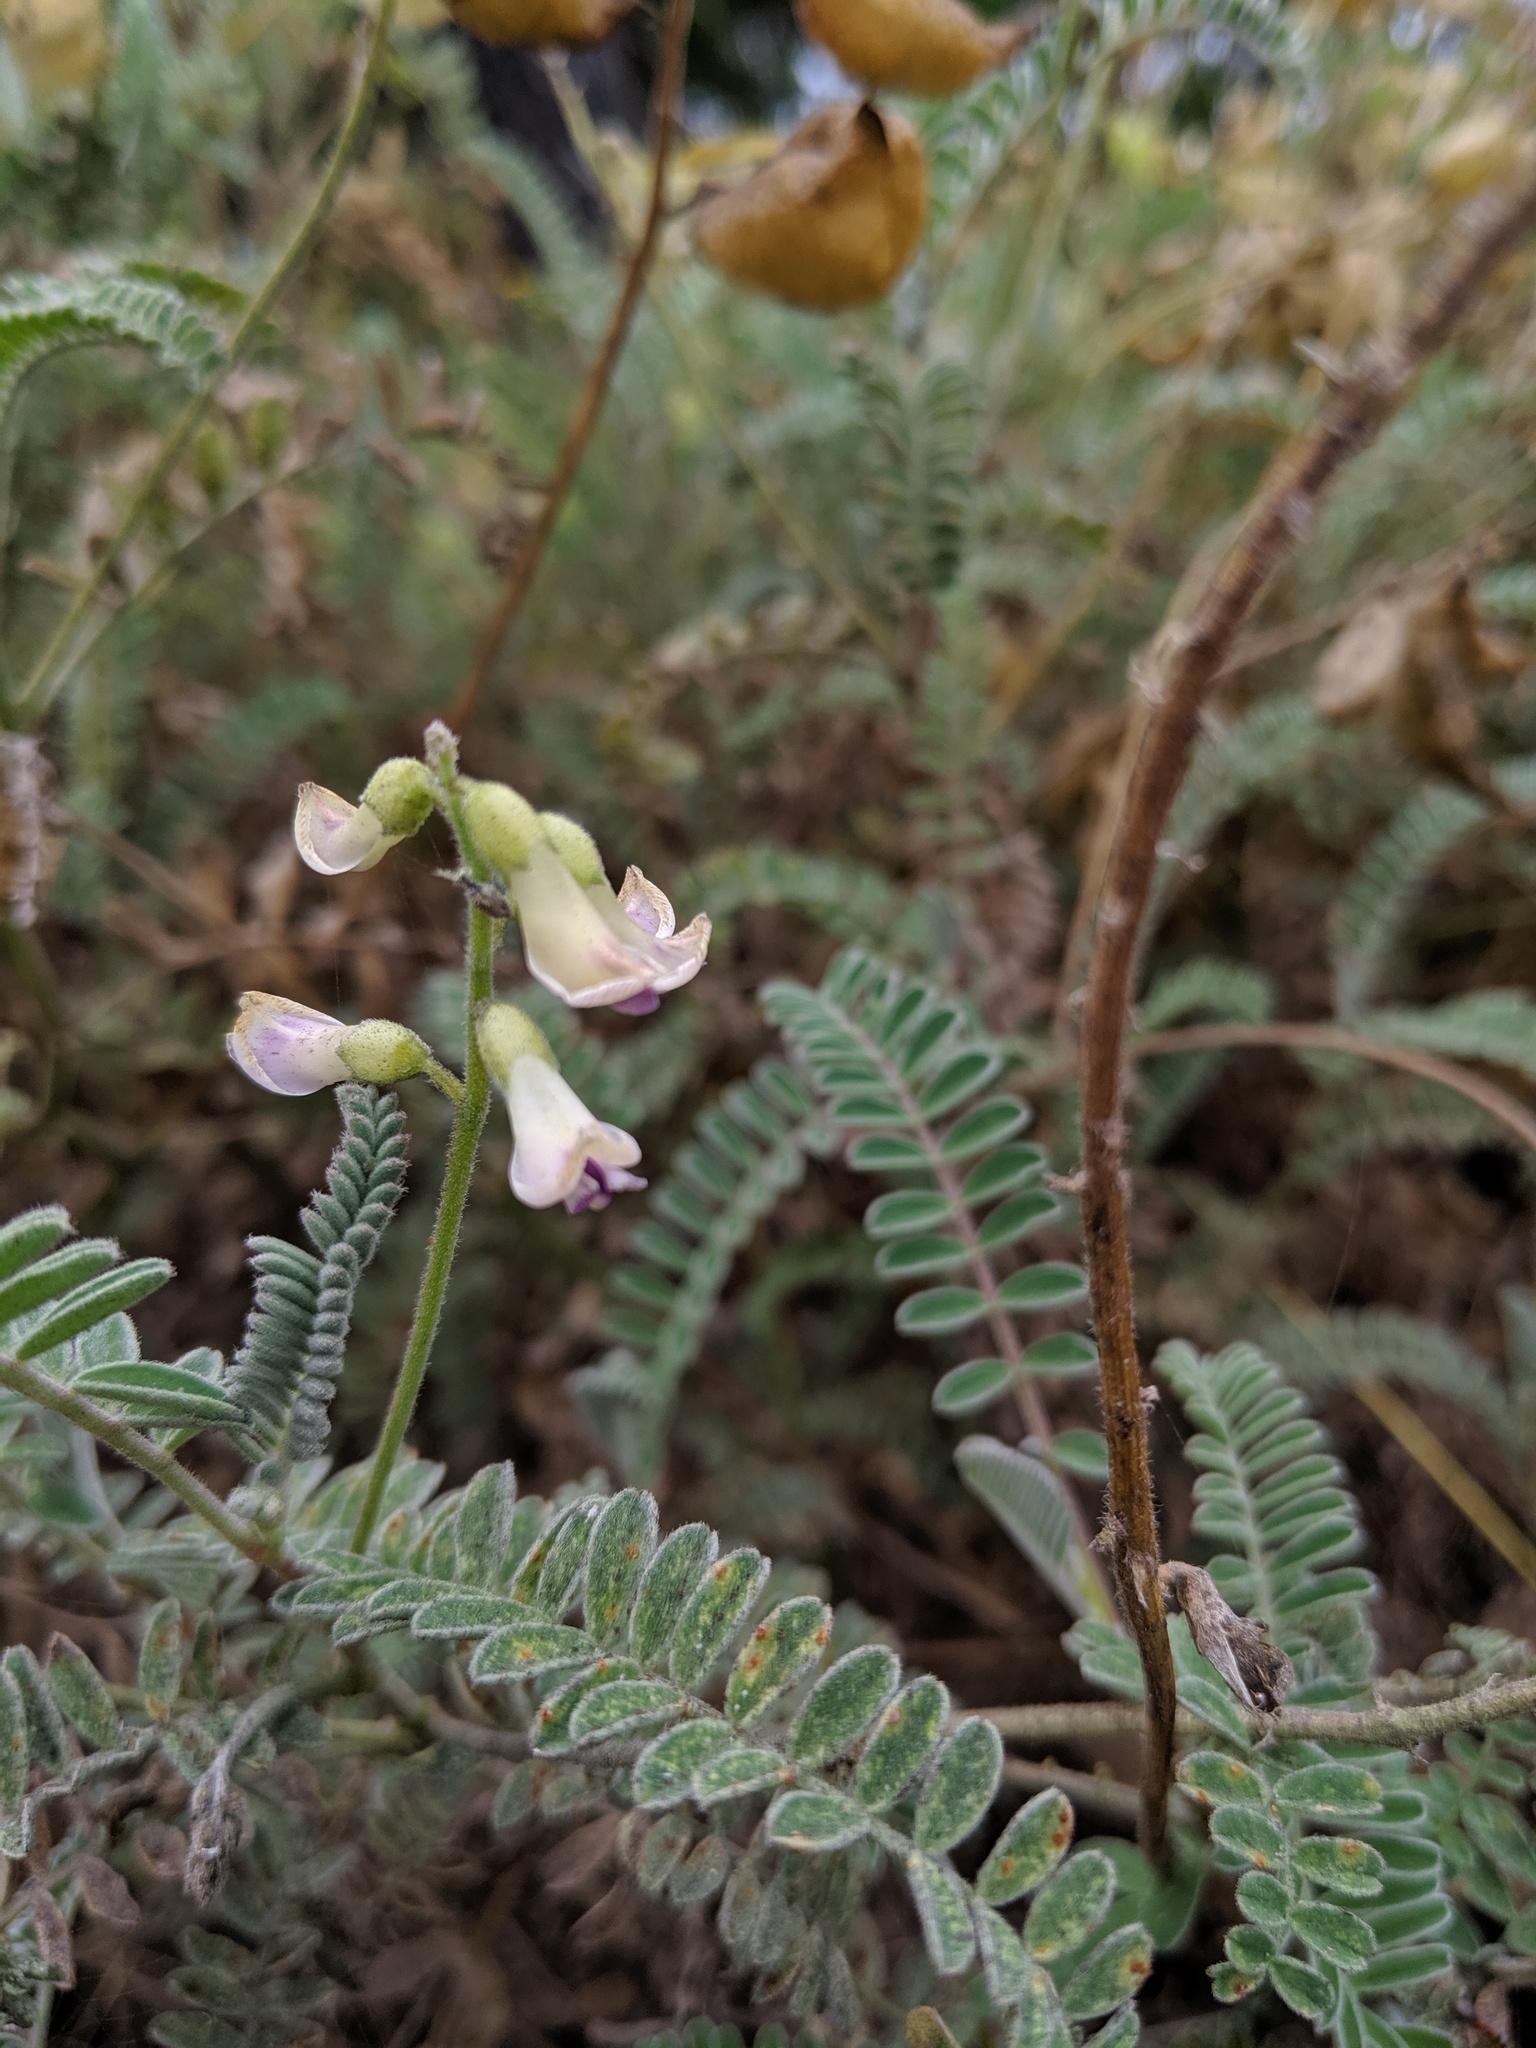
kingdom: Plantae
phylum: Tracheophyta
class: Magnoliopsida
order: Fabales
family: Fabaceae
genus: Astragalus
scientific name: Astragalus nuttallii
